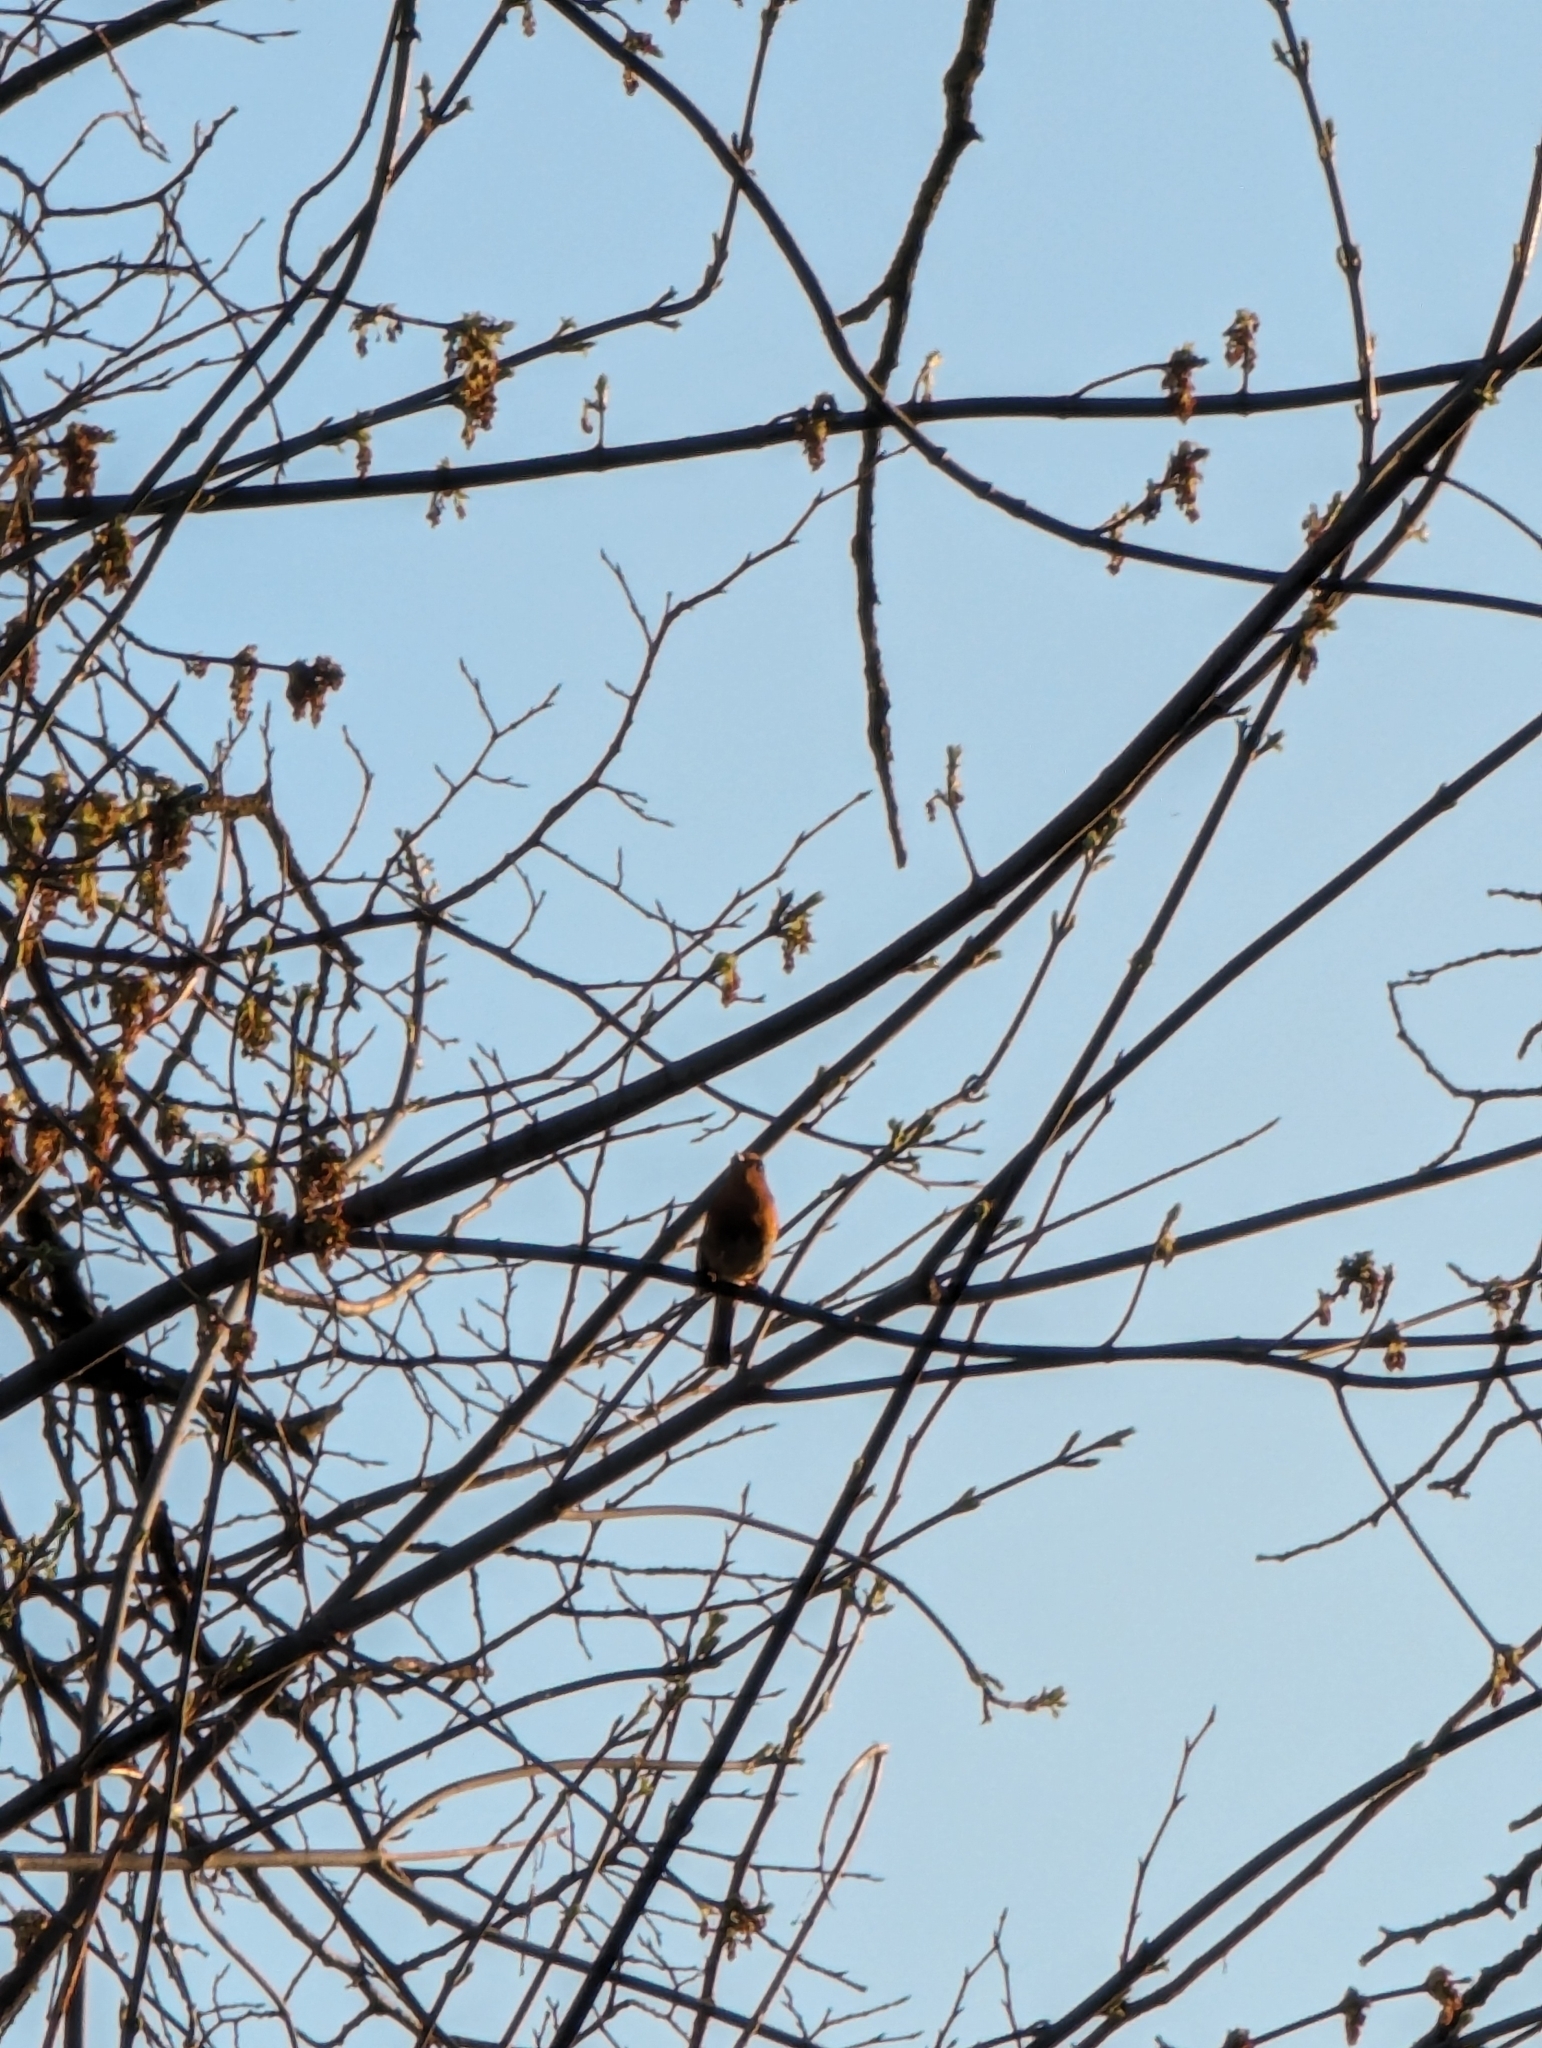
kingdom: Animalia
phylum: Chordata
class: Aves
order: Passeriformes
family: Muscicapidae
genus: Erithacus
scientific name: Erithacus rubecula
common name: European robin
